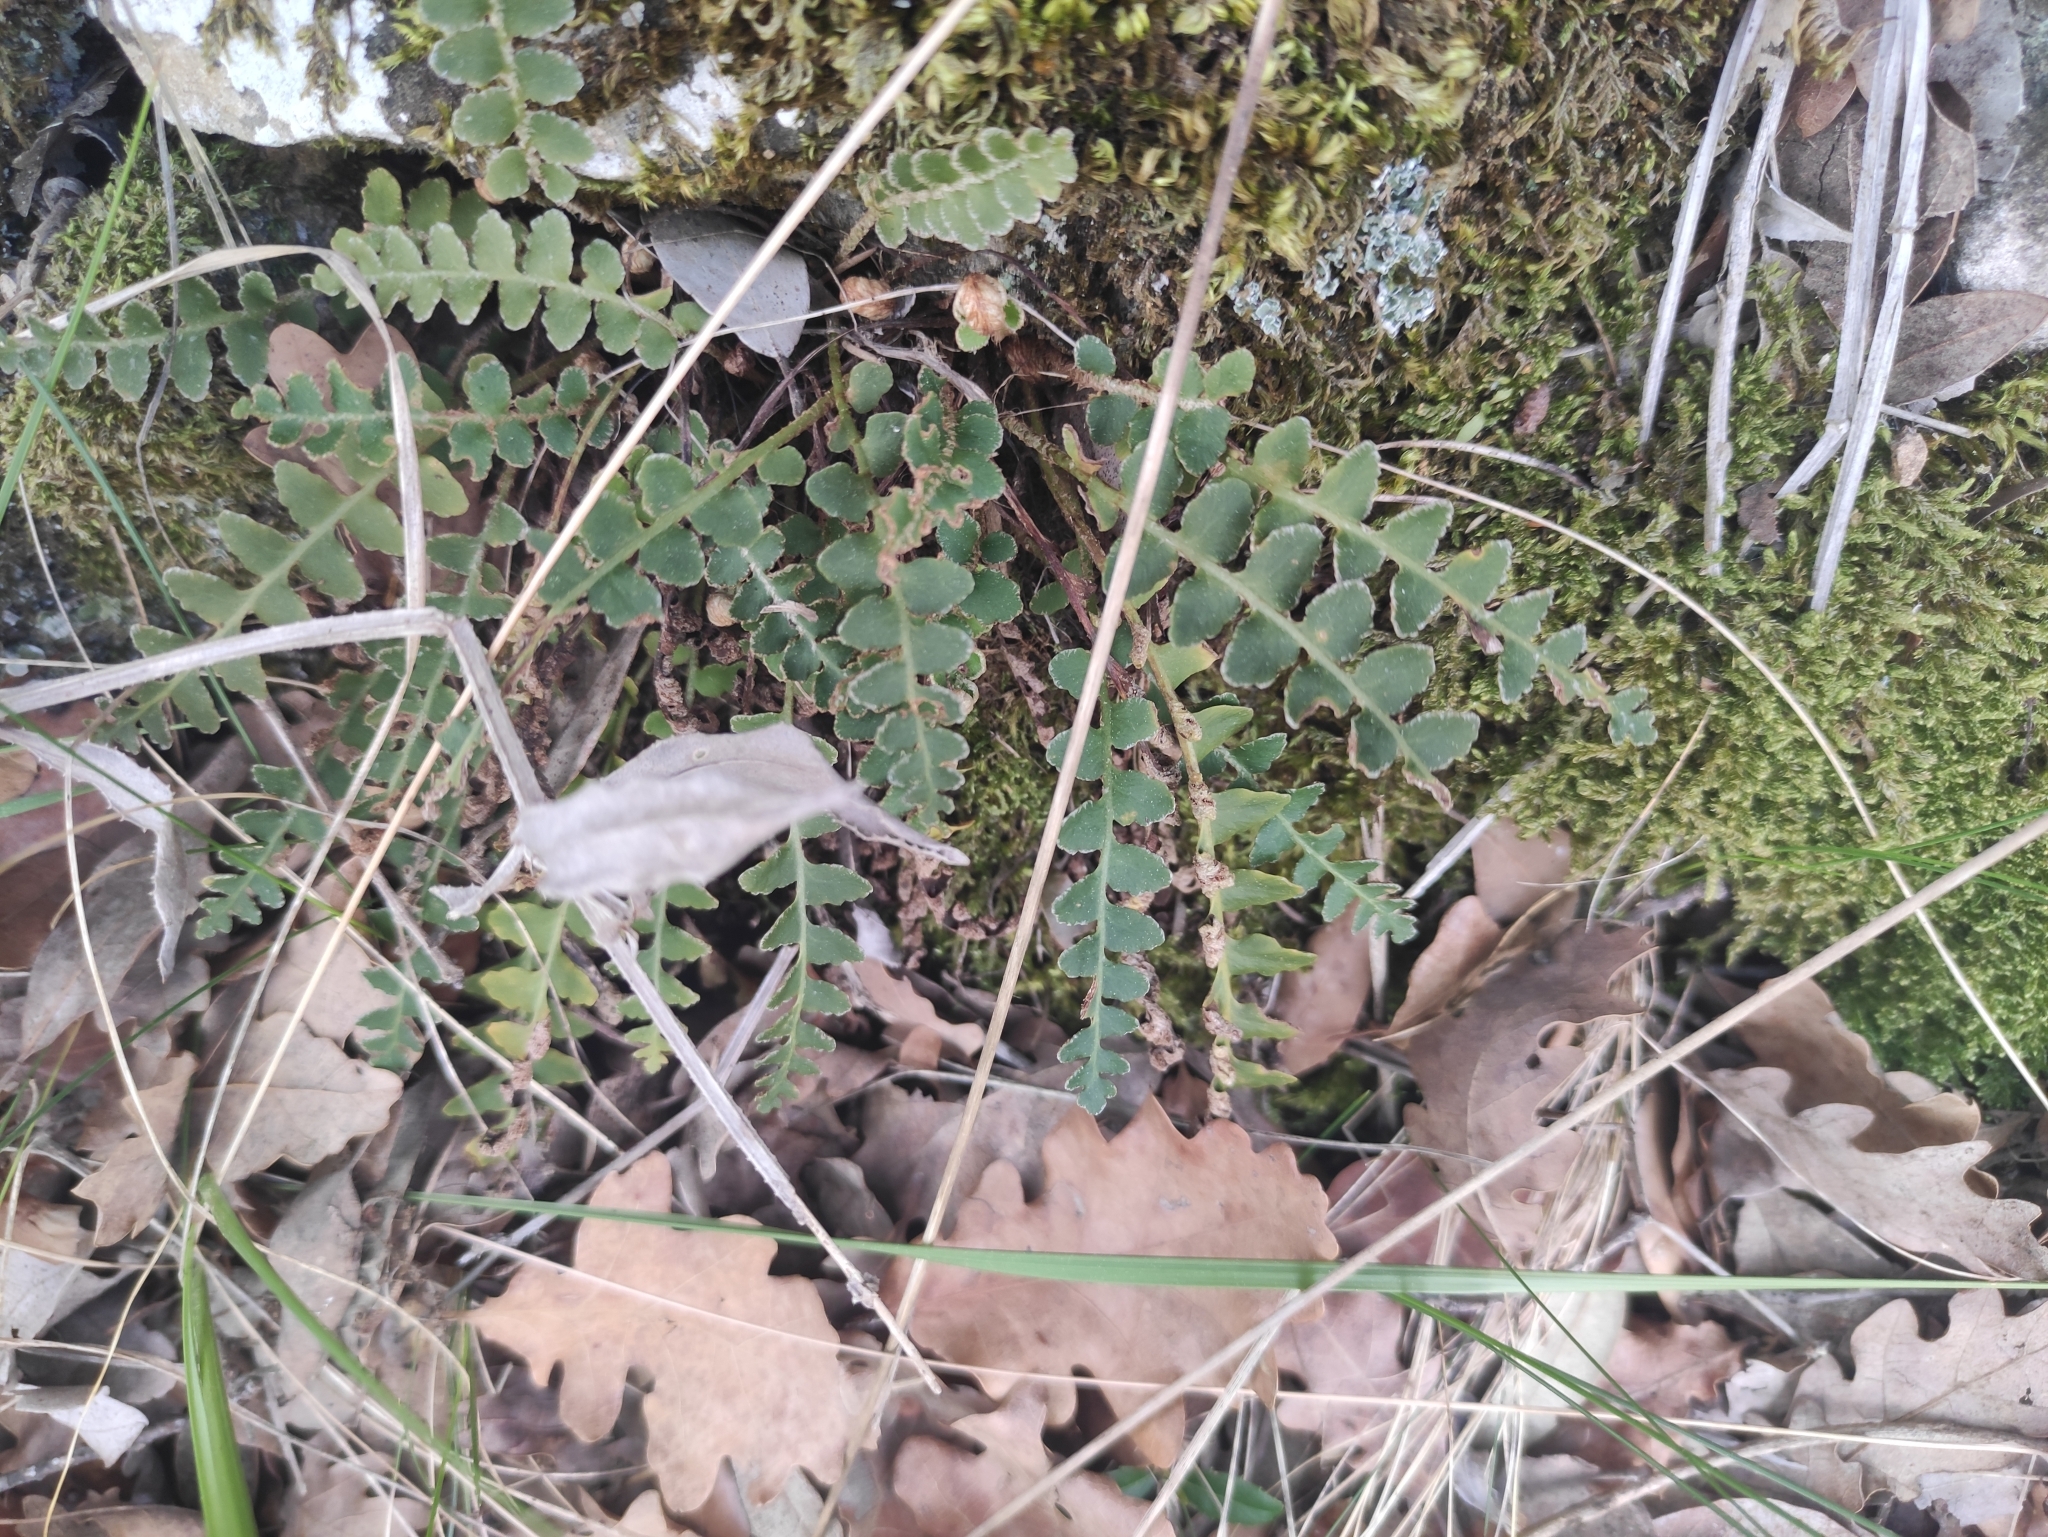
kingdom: Plantae
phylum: Tracheophyta
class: Polypodiopsida
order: Polypodiales
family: Aspleniaceae
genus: Asplenium
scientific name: Asplenium ceterach
